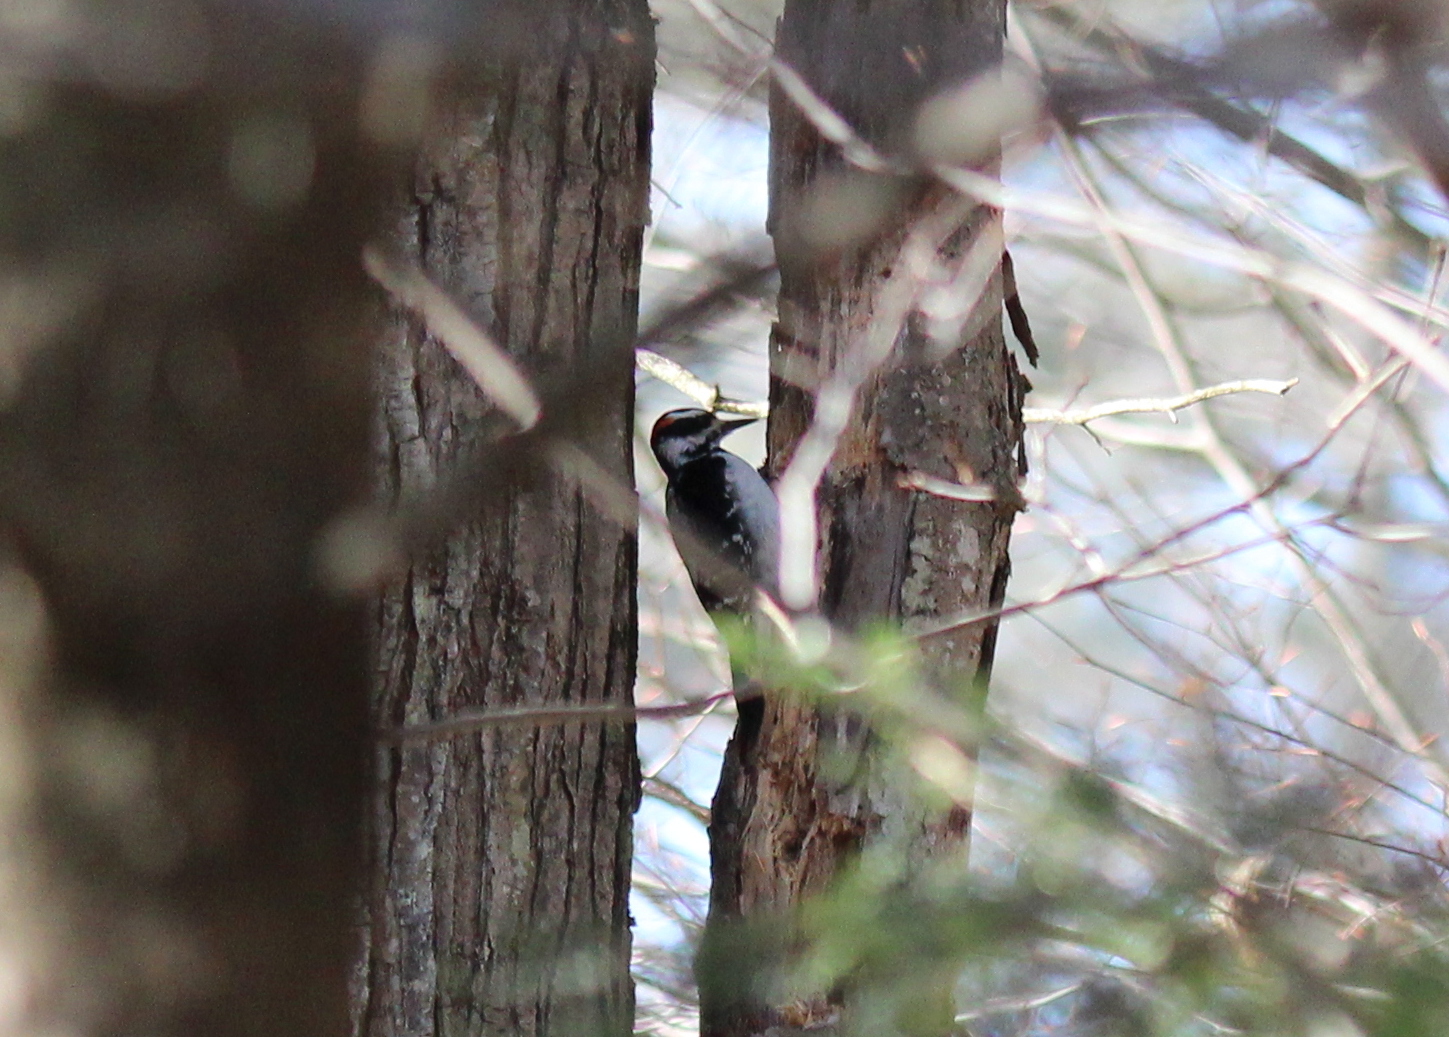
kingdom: Animalia
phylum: Chordata
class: Aves
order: Piciformes
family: Picidae
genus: Leuconotopicus
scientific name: Leuconotopicus villosus
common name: Hairy woodpecker
